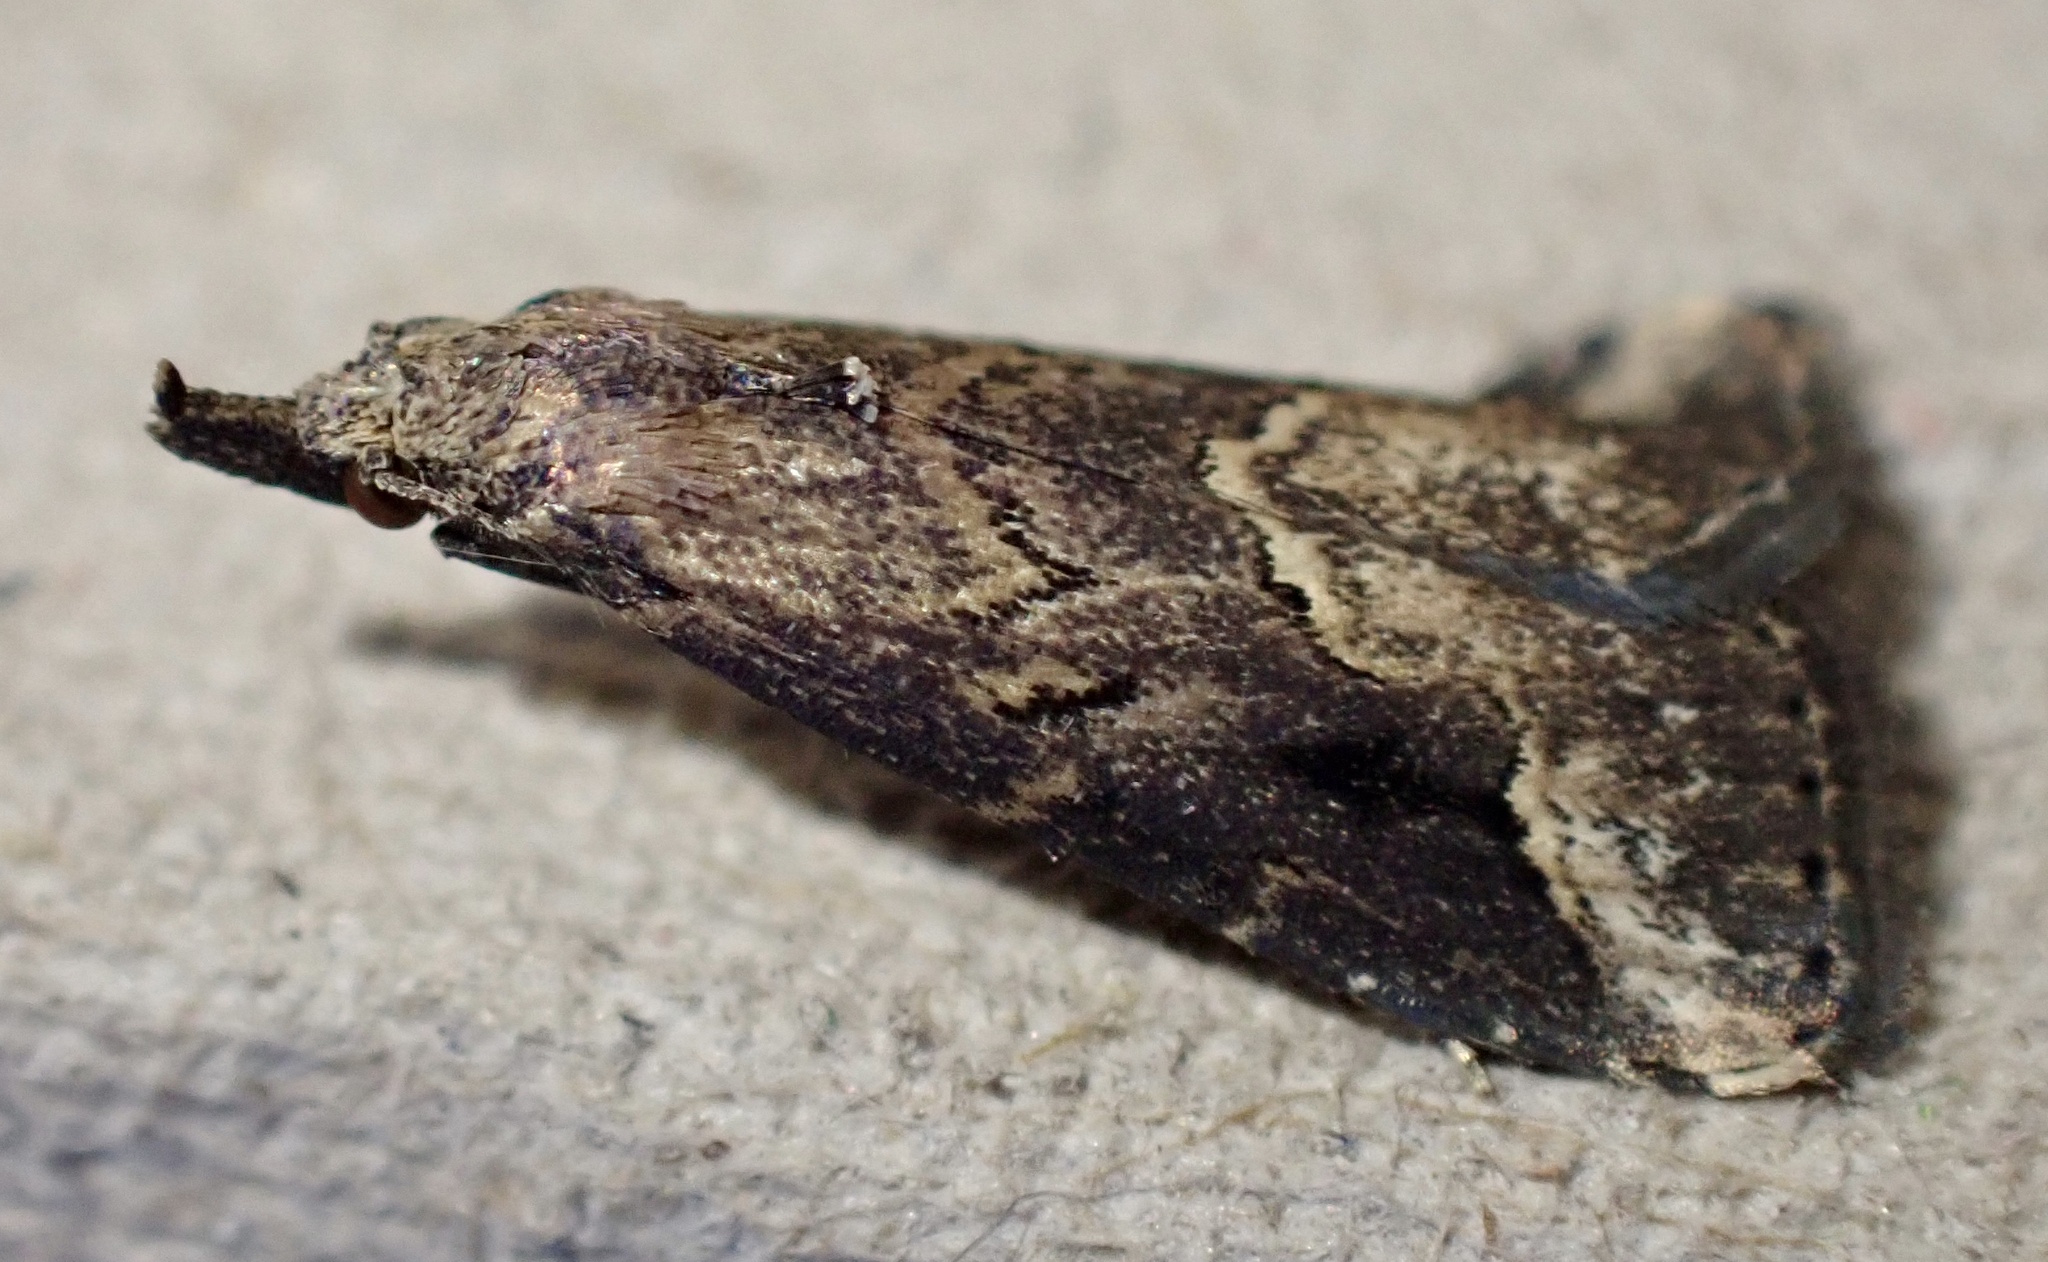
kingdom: Animalia
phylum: Arthropoda
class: Insecta
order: Lepidoptera
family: Erebidae
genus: Schrankia
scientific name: Schrankia costaestrigalis
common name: Pinion-streaked snout
